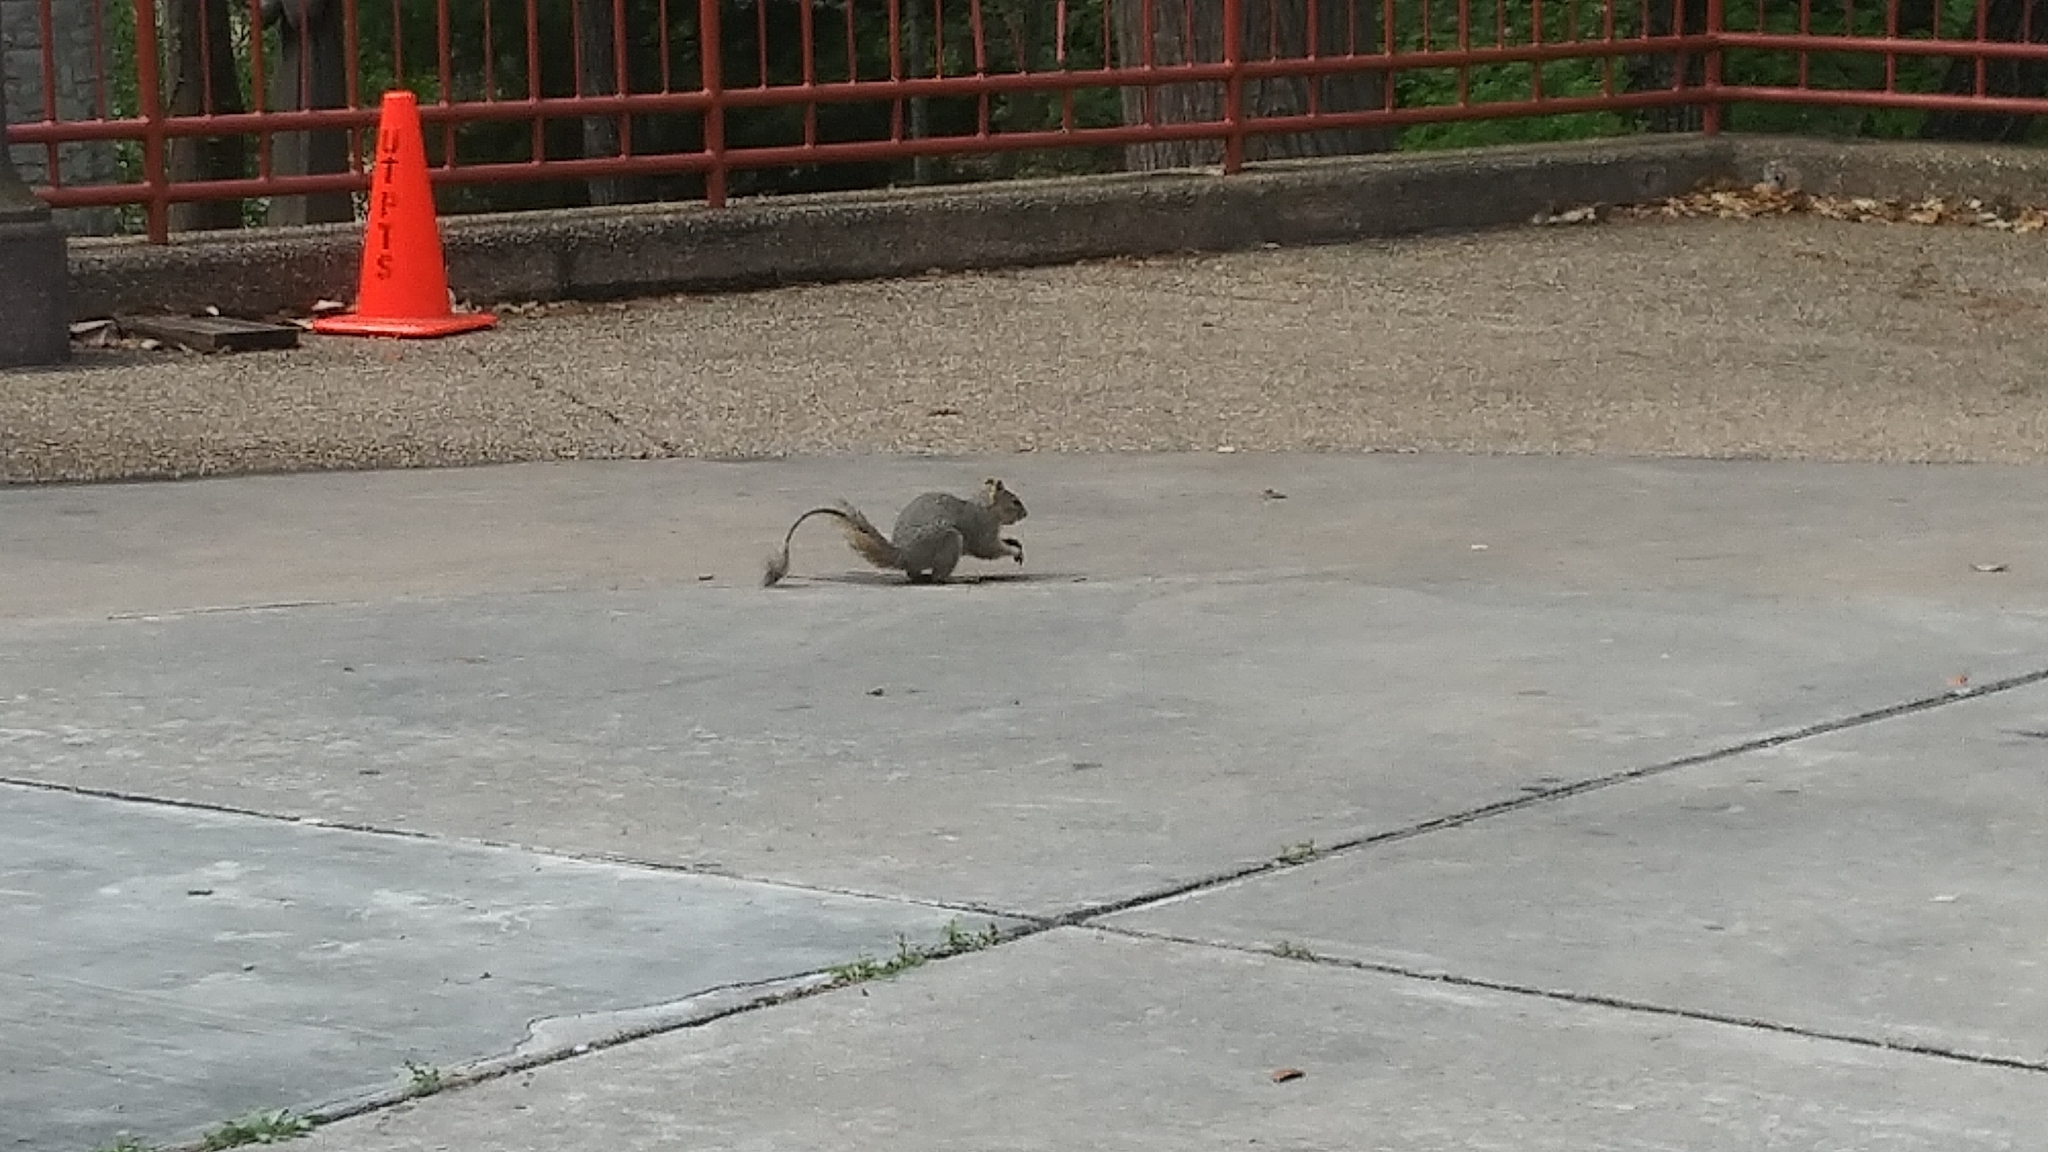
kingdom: Animalia
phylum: Chordata
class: Mammalia
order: Rodentia
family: Sciuridae
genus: Sciurus
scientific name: Sciurus niger
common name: Fox squirrel
